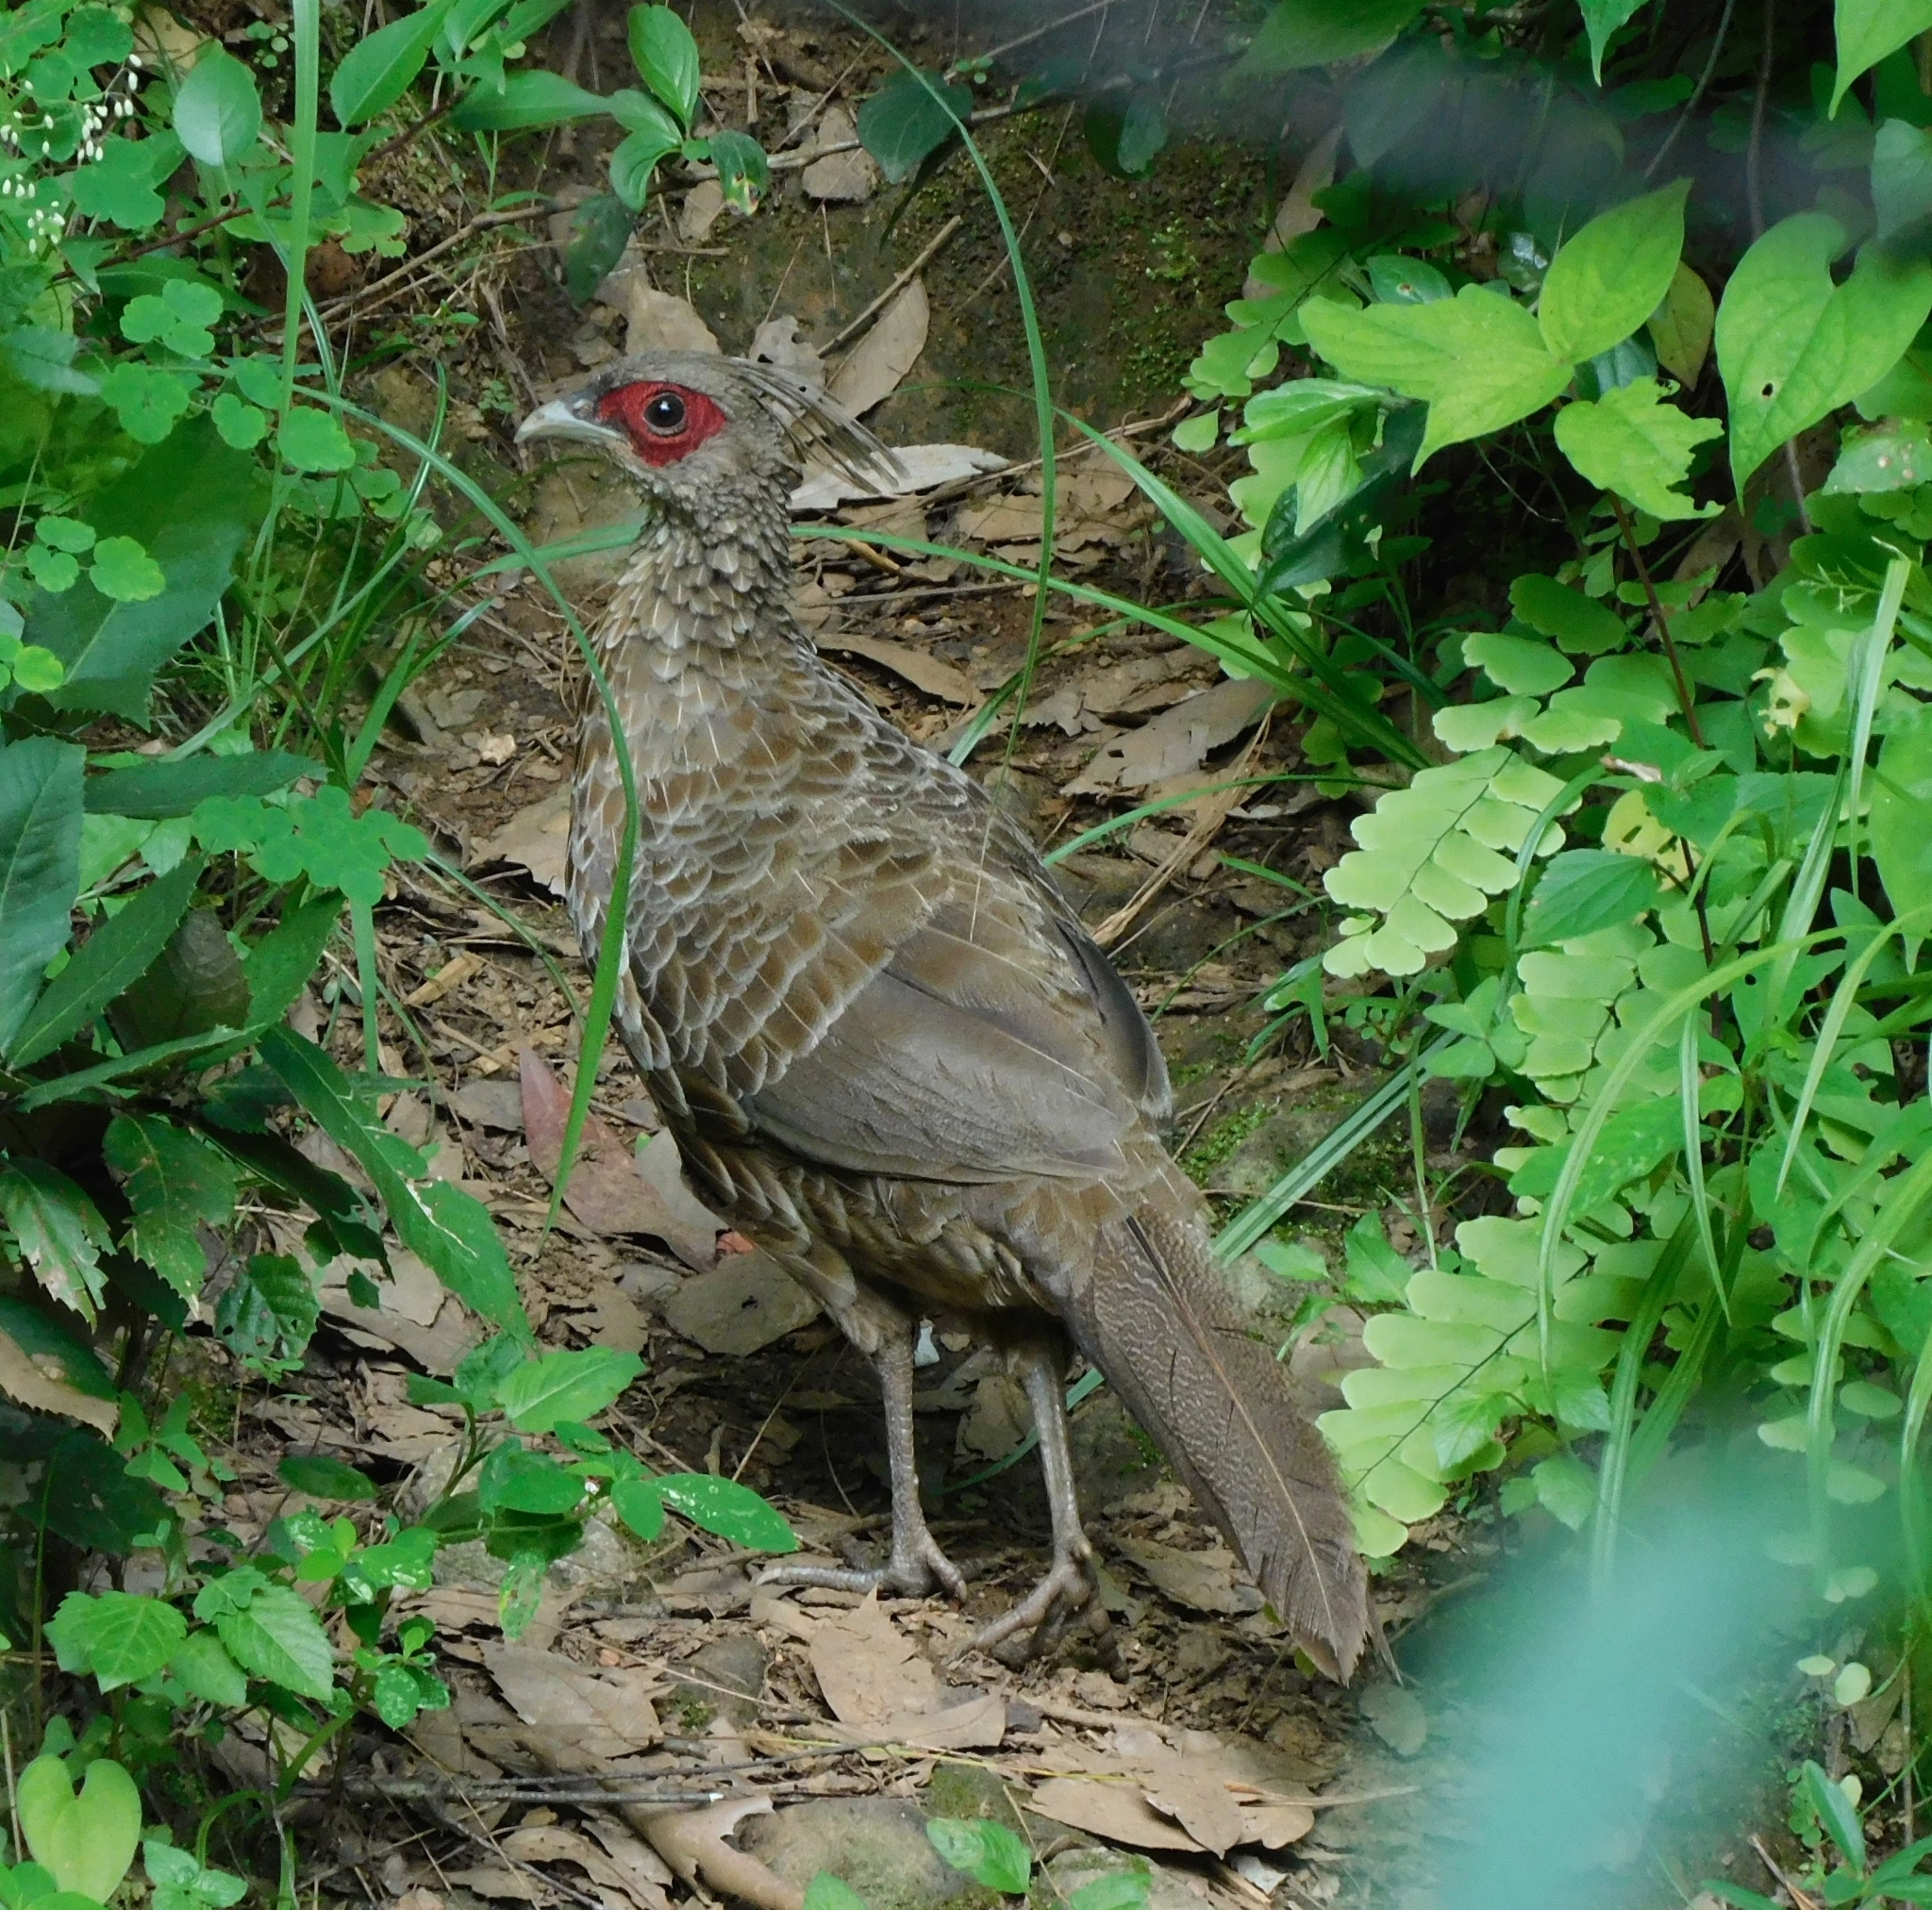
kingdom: Animalia
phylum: Chordata
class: Aves
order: Galliformes
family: Phasianidae
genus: Lophura
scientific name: Lophura leucomelanos
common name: Kalij pheasant
